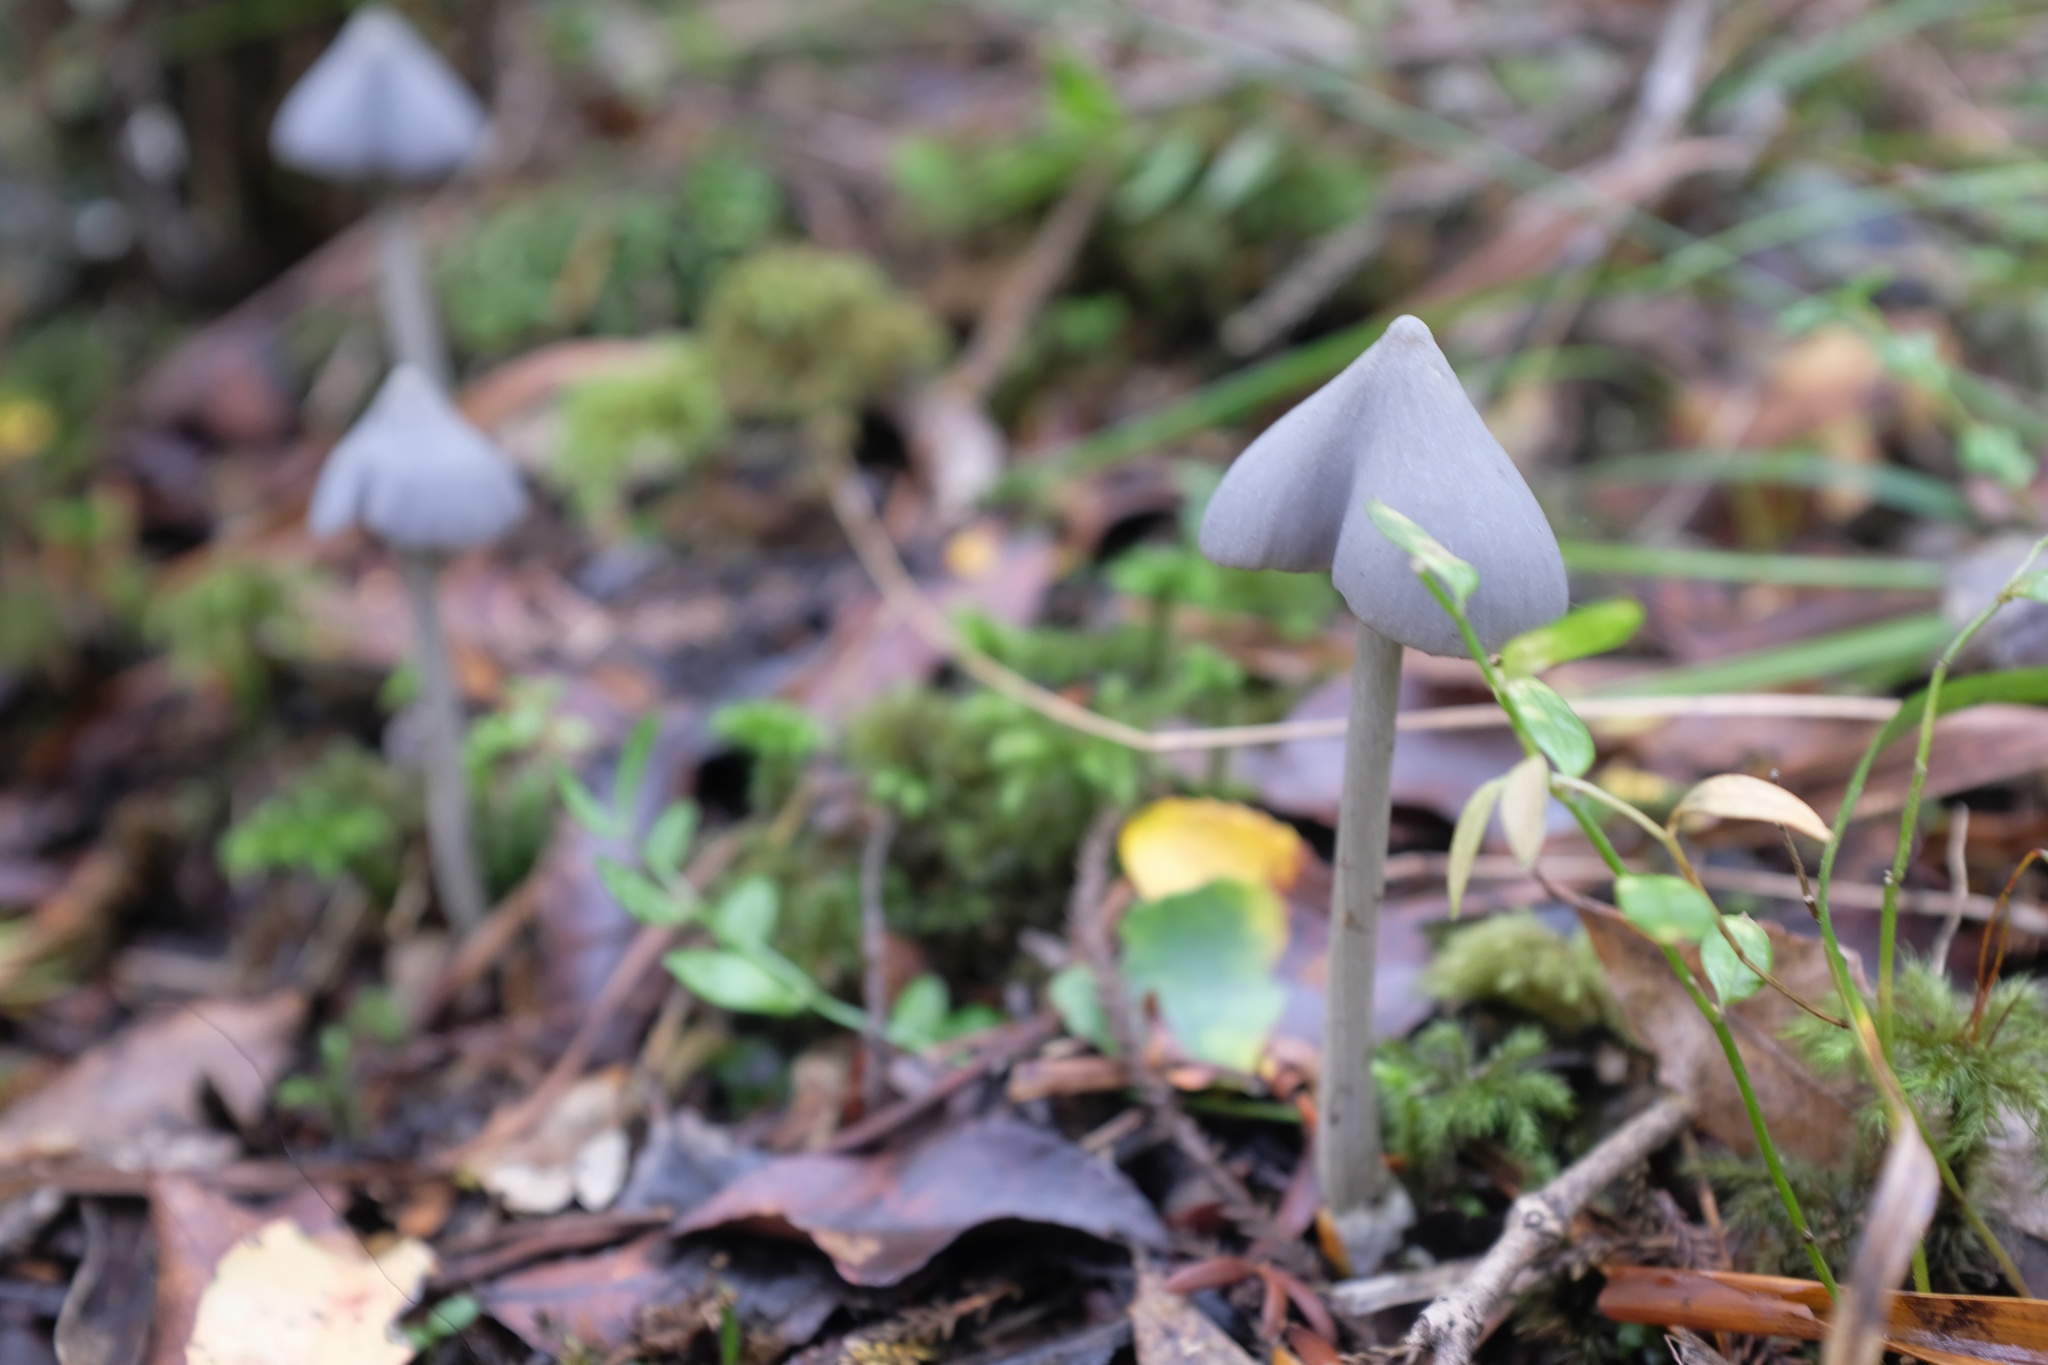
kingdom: Fungi
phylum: Basidiomycota
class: Agaricomycetes
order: Agaricales
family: Entolomataceae
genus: Entoloma
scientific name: Entoloma canoconicum
